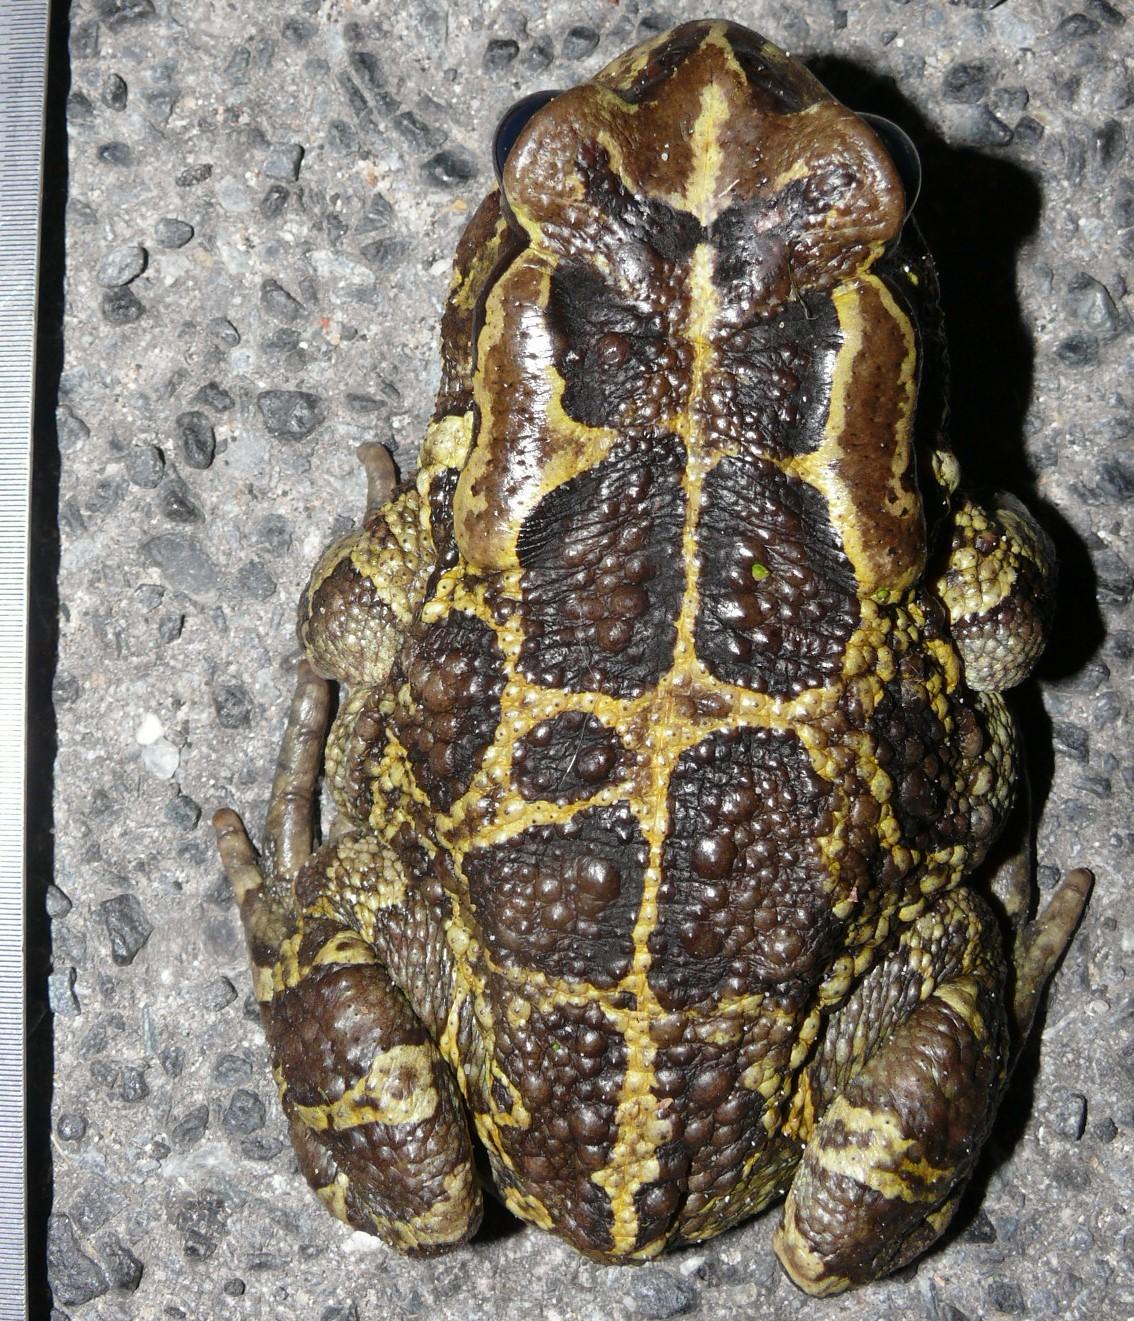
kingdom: Animalia
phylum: Chordata
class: Amphibia
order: Anura
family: Bufonidae
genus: Sclerophrys
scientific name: Sclerophrys pantherina
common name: Panther toad
